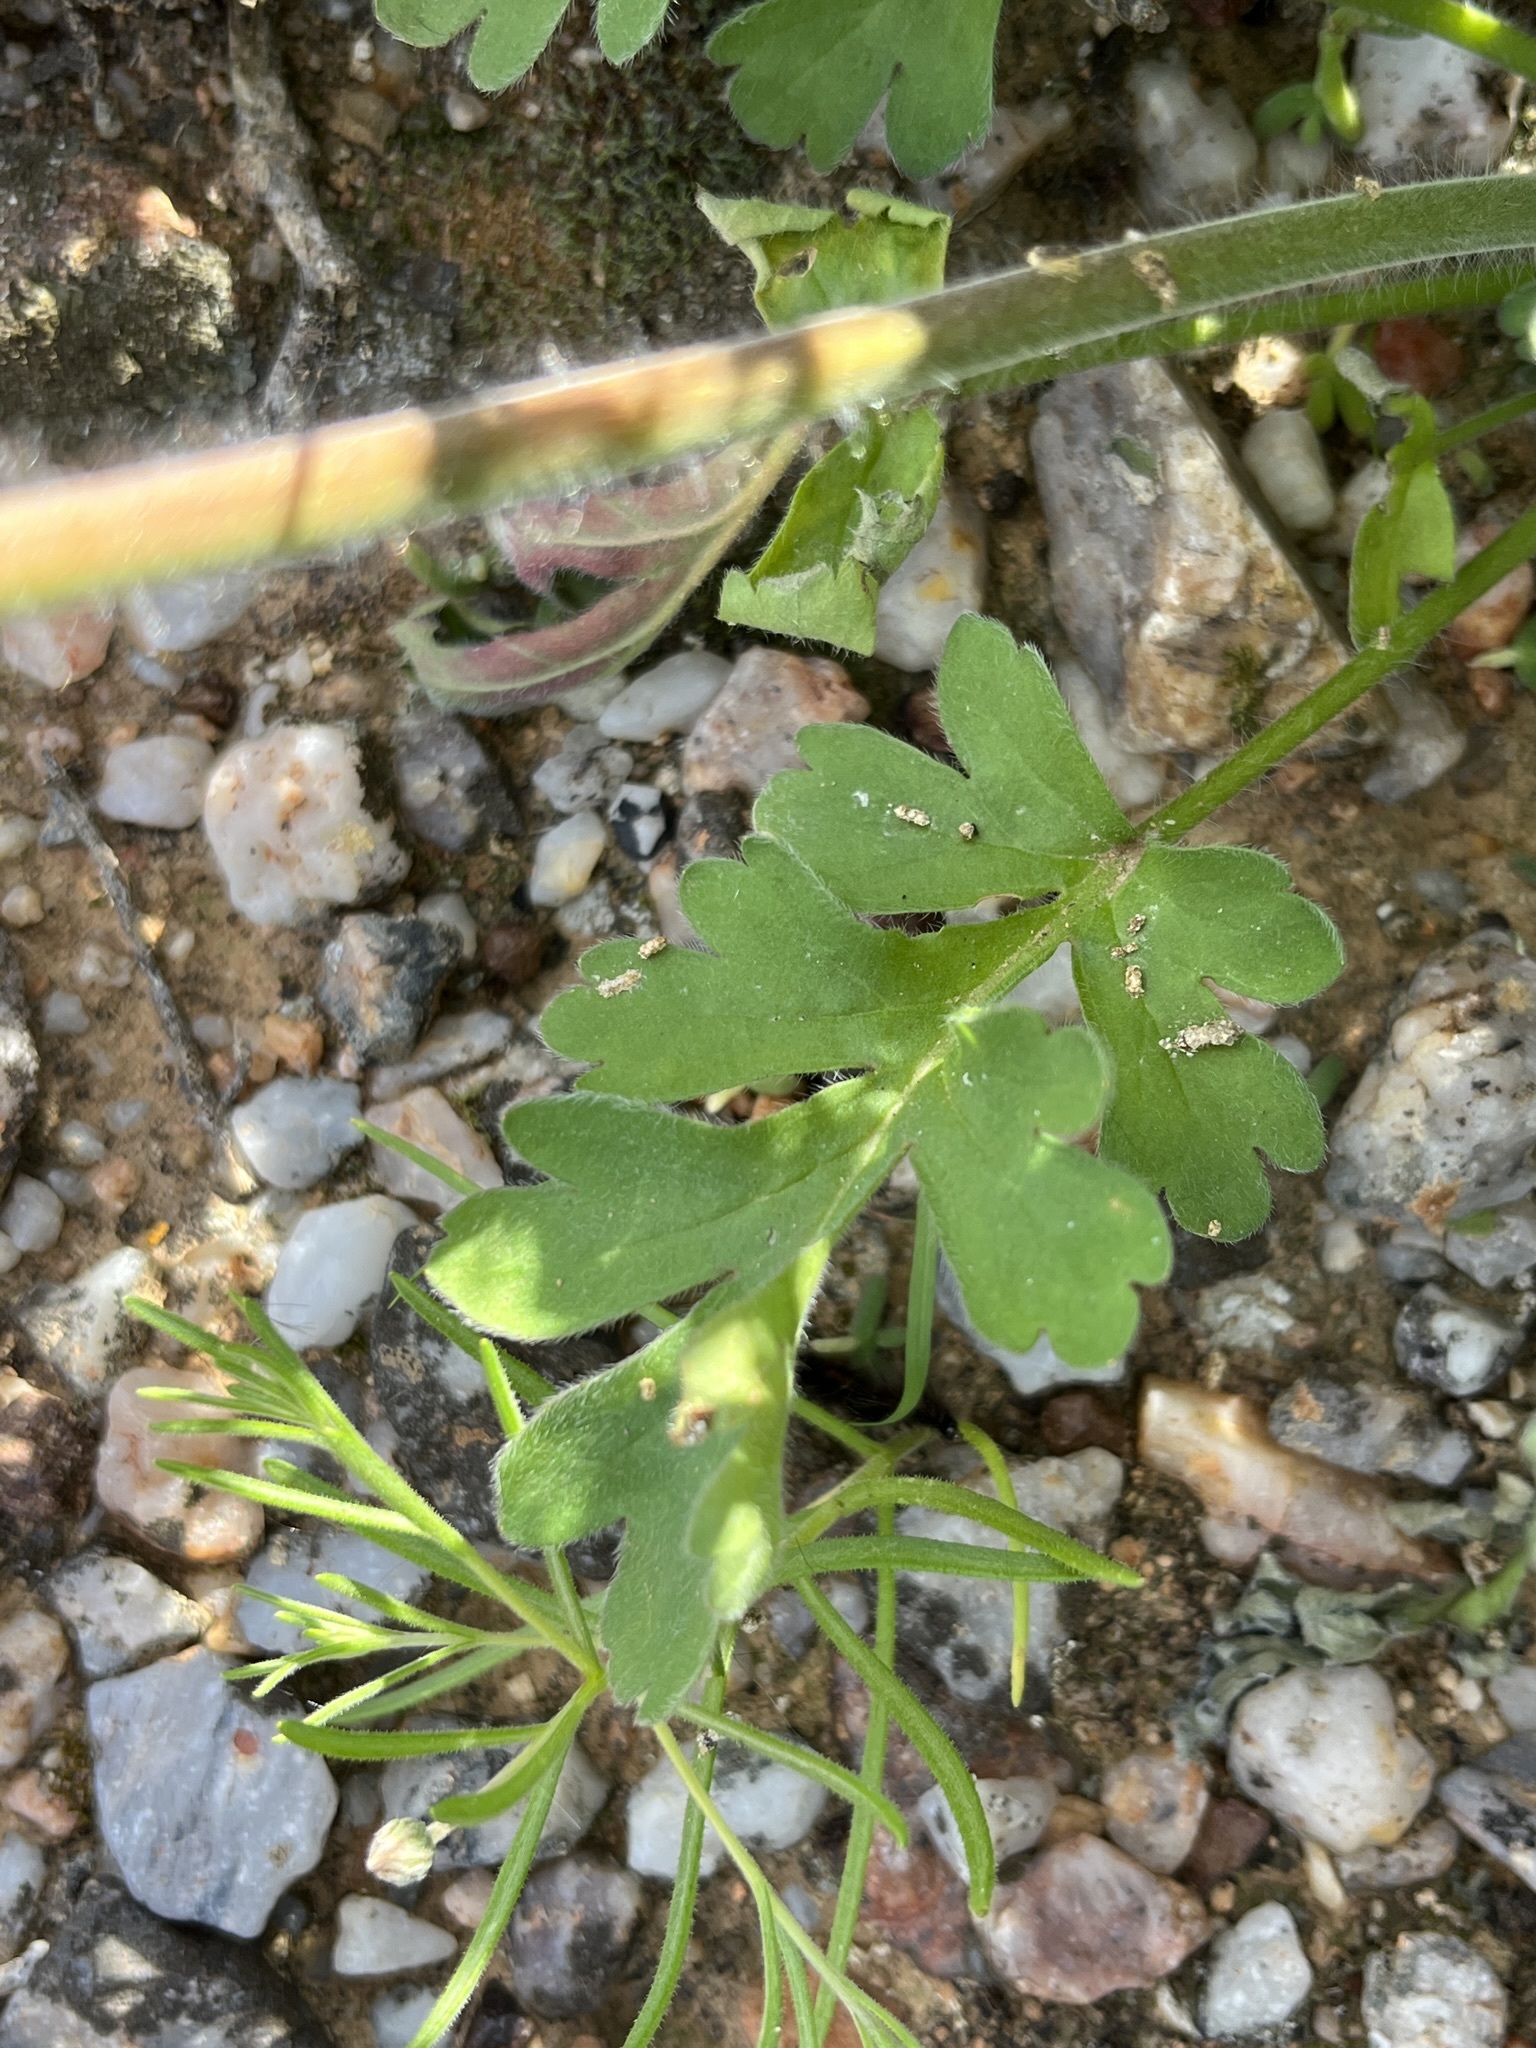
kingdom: Plantae
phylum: Tracheophyta
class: Magnoliopsida
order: Geraniales
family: Geraniaceae
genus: Pelargonium
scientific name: Pelargonium incrassatum
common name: Namaqualand beauty
